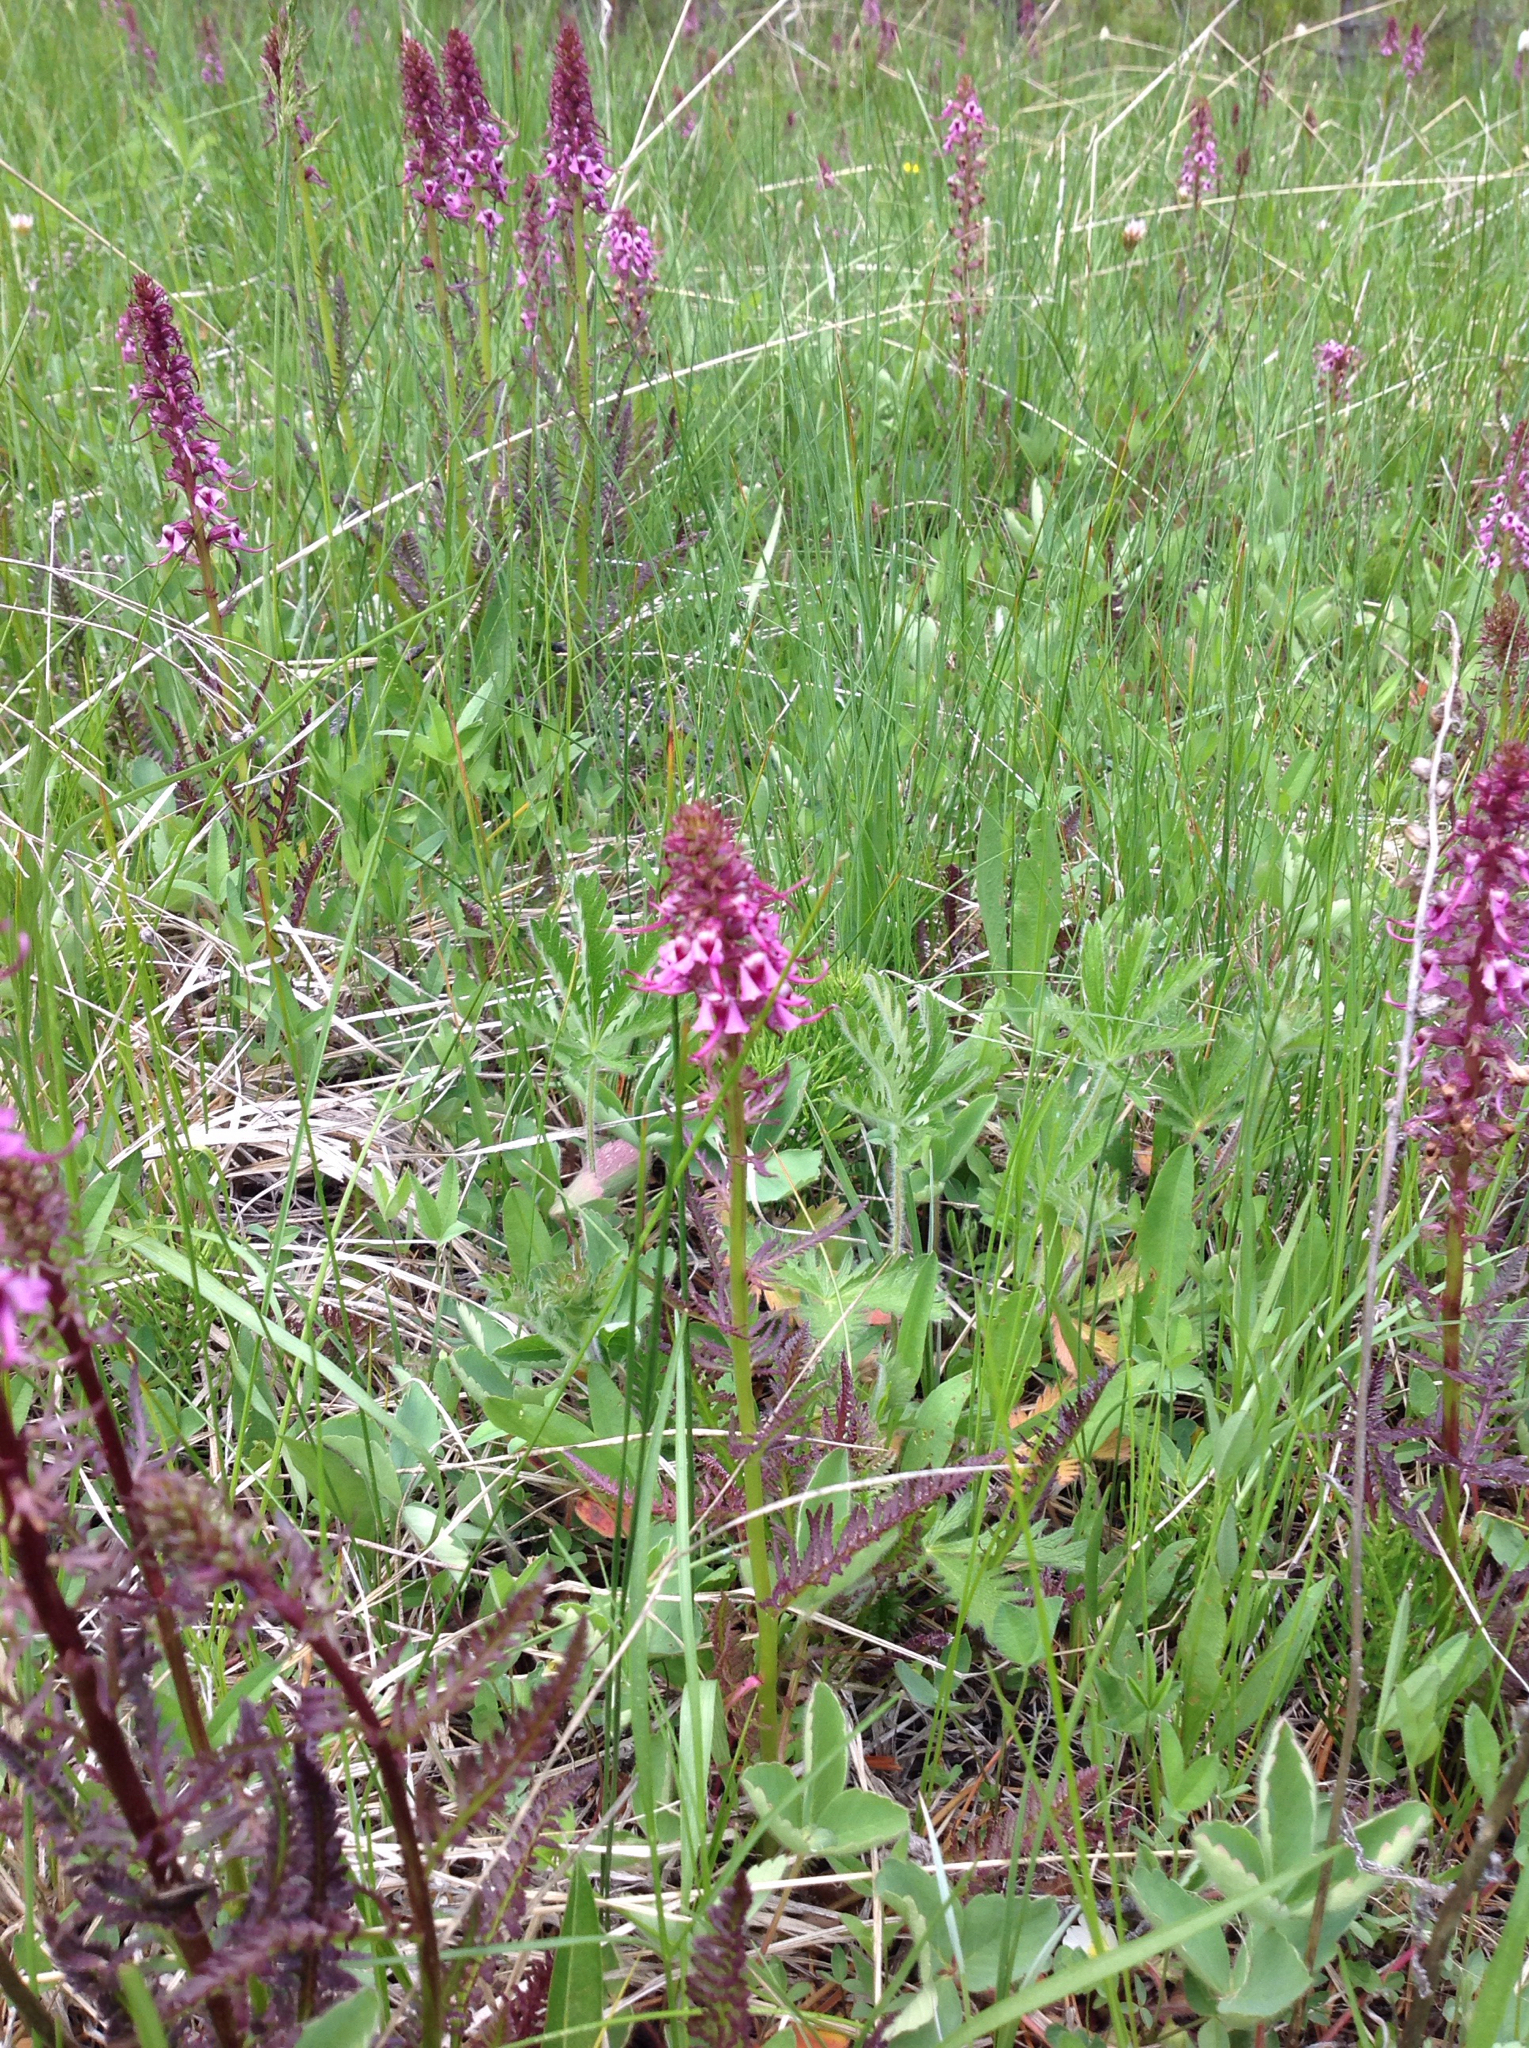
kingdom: Plantae
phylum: Tracheophyta
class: Magnoliopsida
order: Lamiales
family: Orobanchaceae
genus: Pedicularis
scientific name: Pedicularis groenlandica
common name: Elephant's-head
